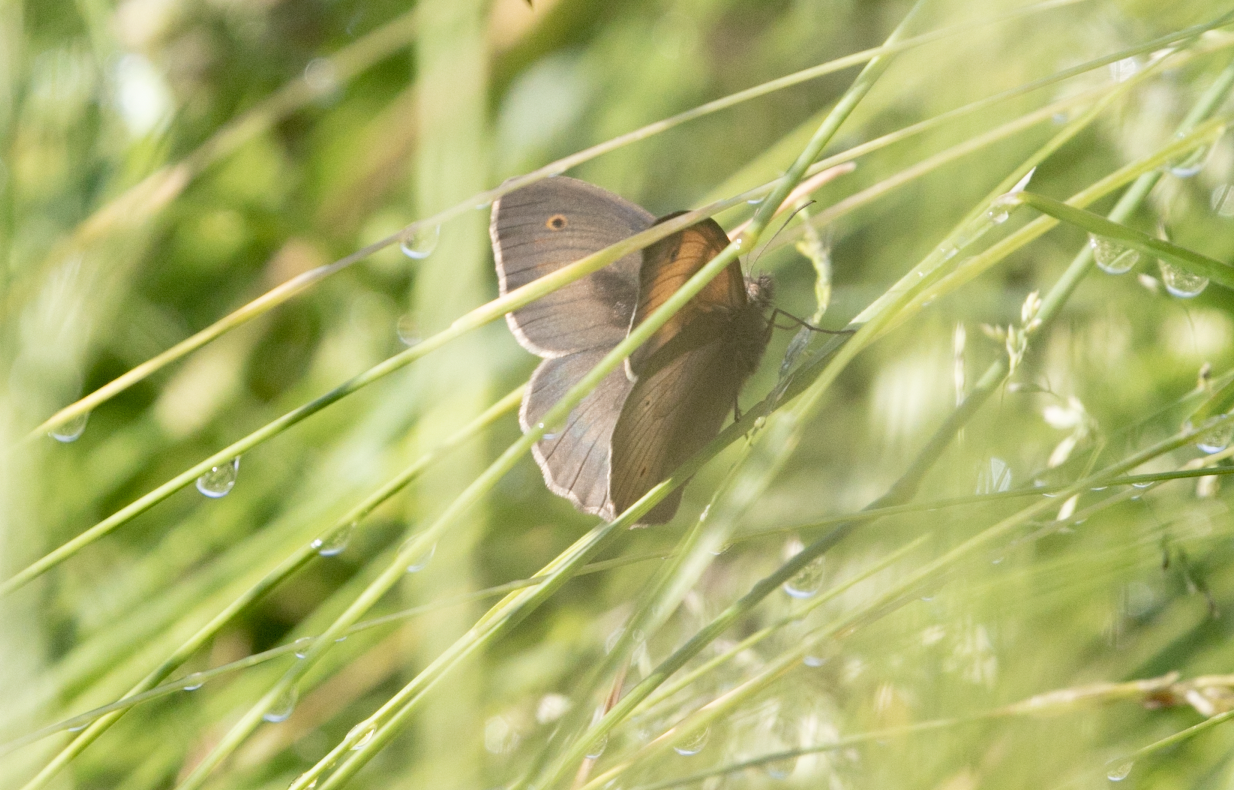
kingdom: Animalia
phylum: Arthropoda
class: Insecta
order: Lepidoptera
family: Nymphalidae
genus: Maniola
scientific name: Maniola jurtina
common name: Meadow brown
